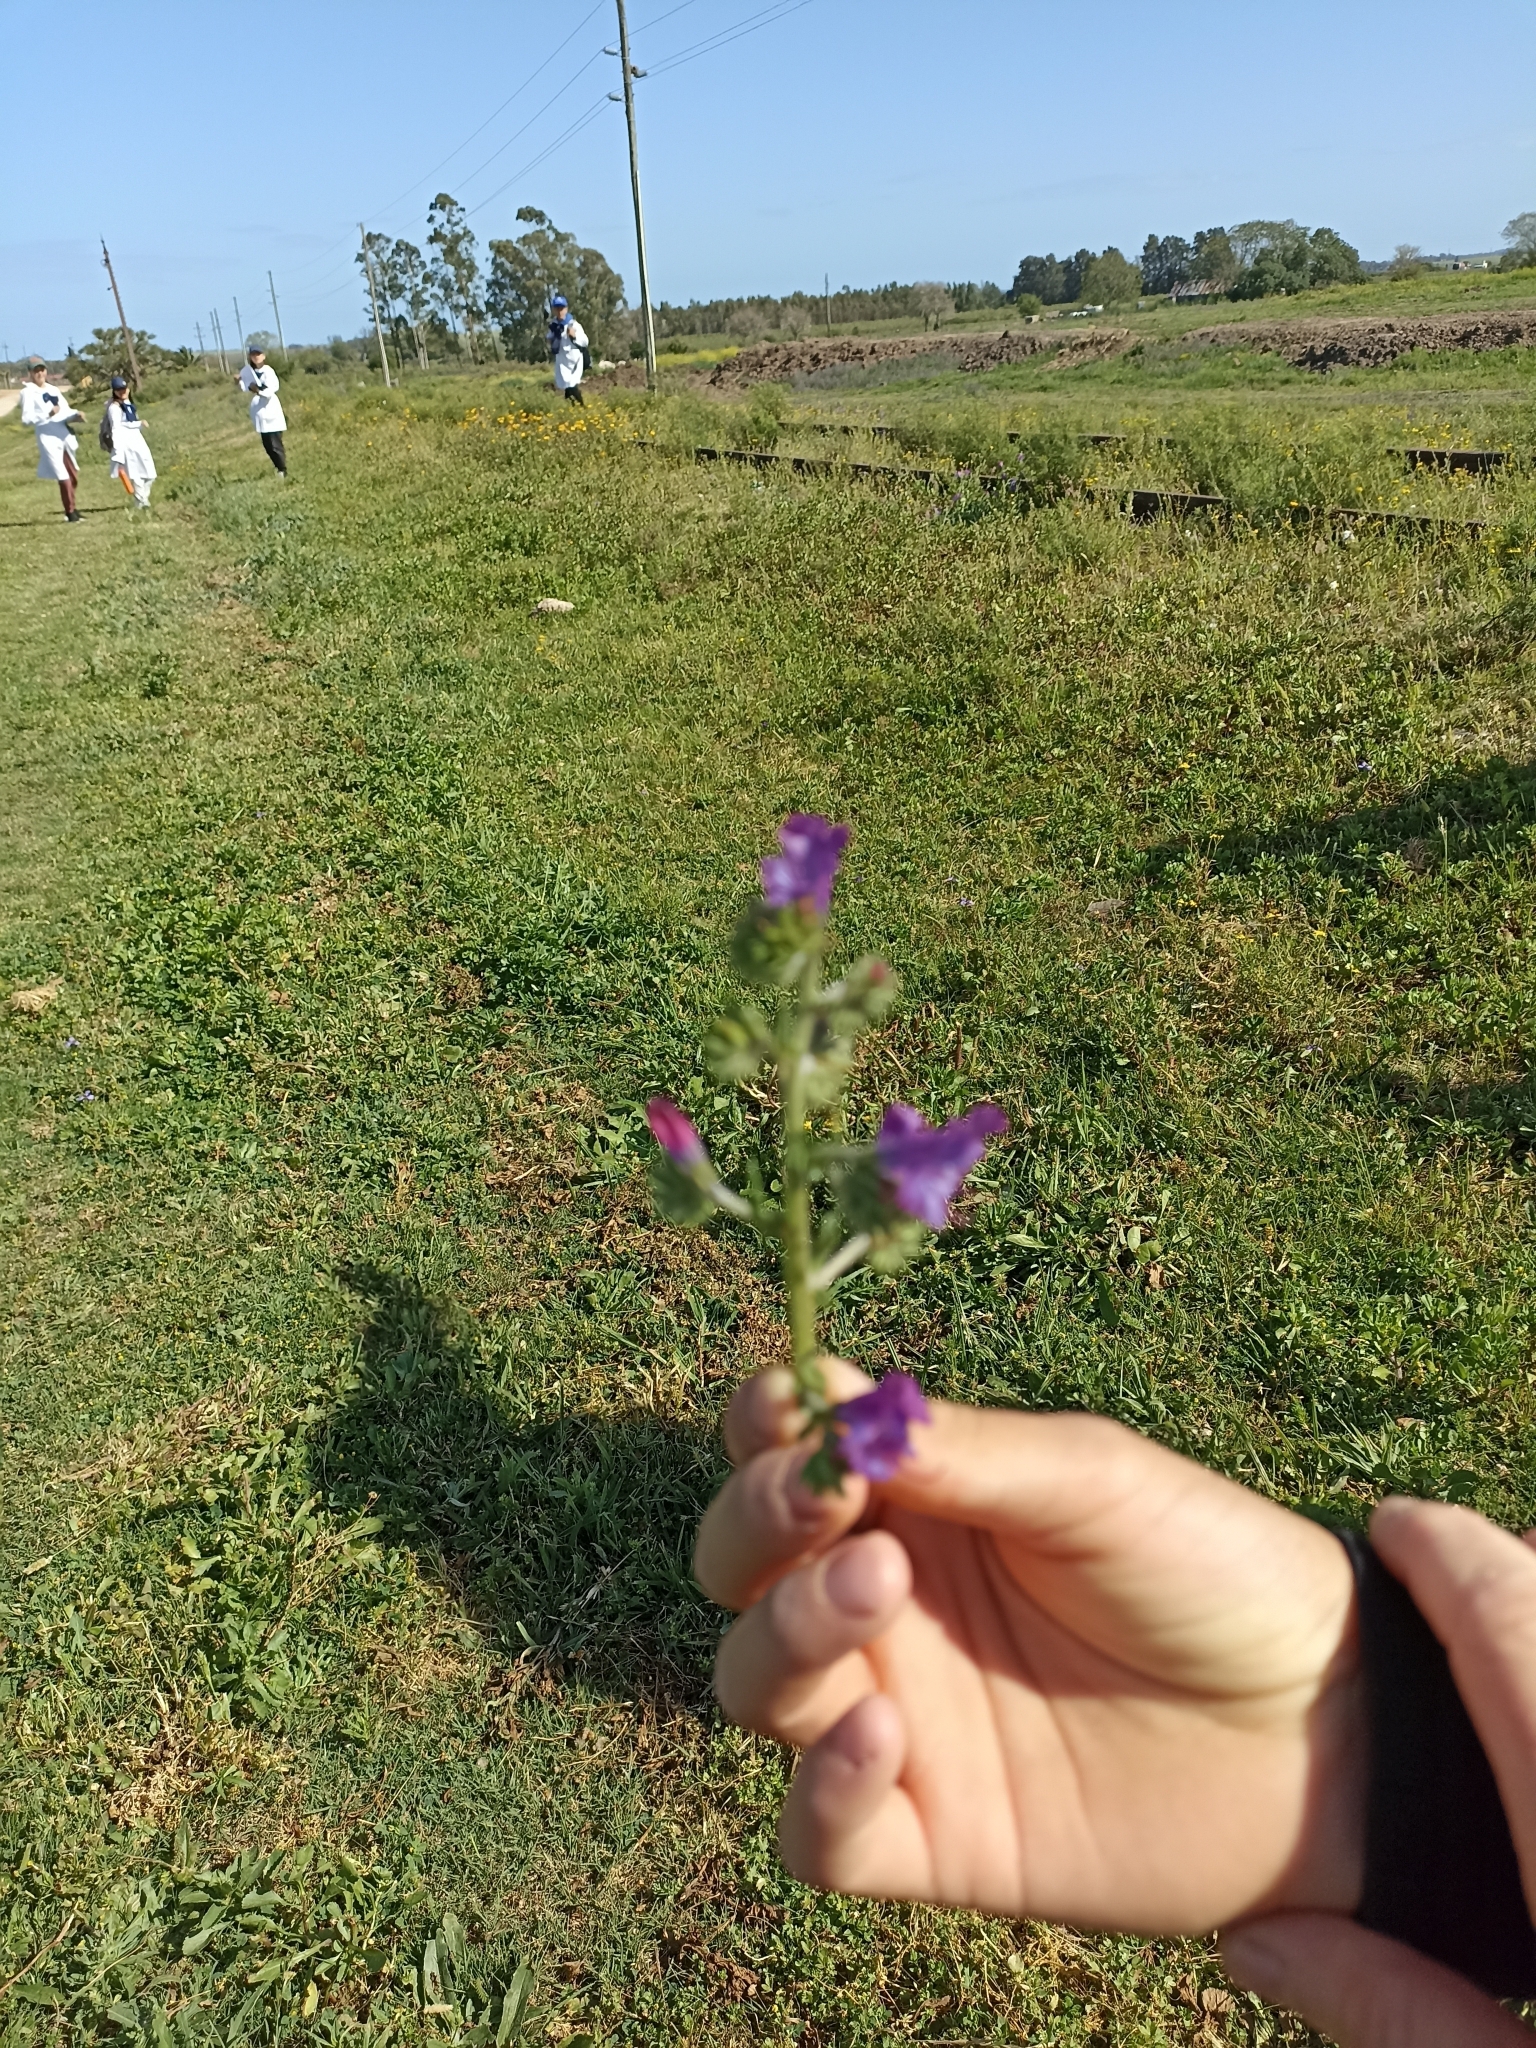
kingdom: Plantae
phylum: Tracheophyta
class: Magnoliopsida
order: Boraginales
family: Boraginaceae
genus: Echium
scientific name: Echium plantagineum
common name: Purple viper's-bugloss
